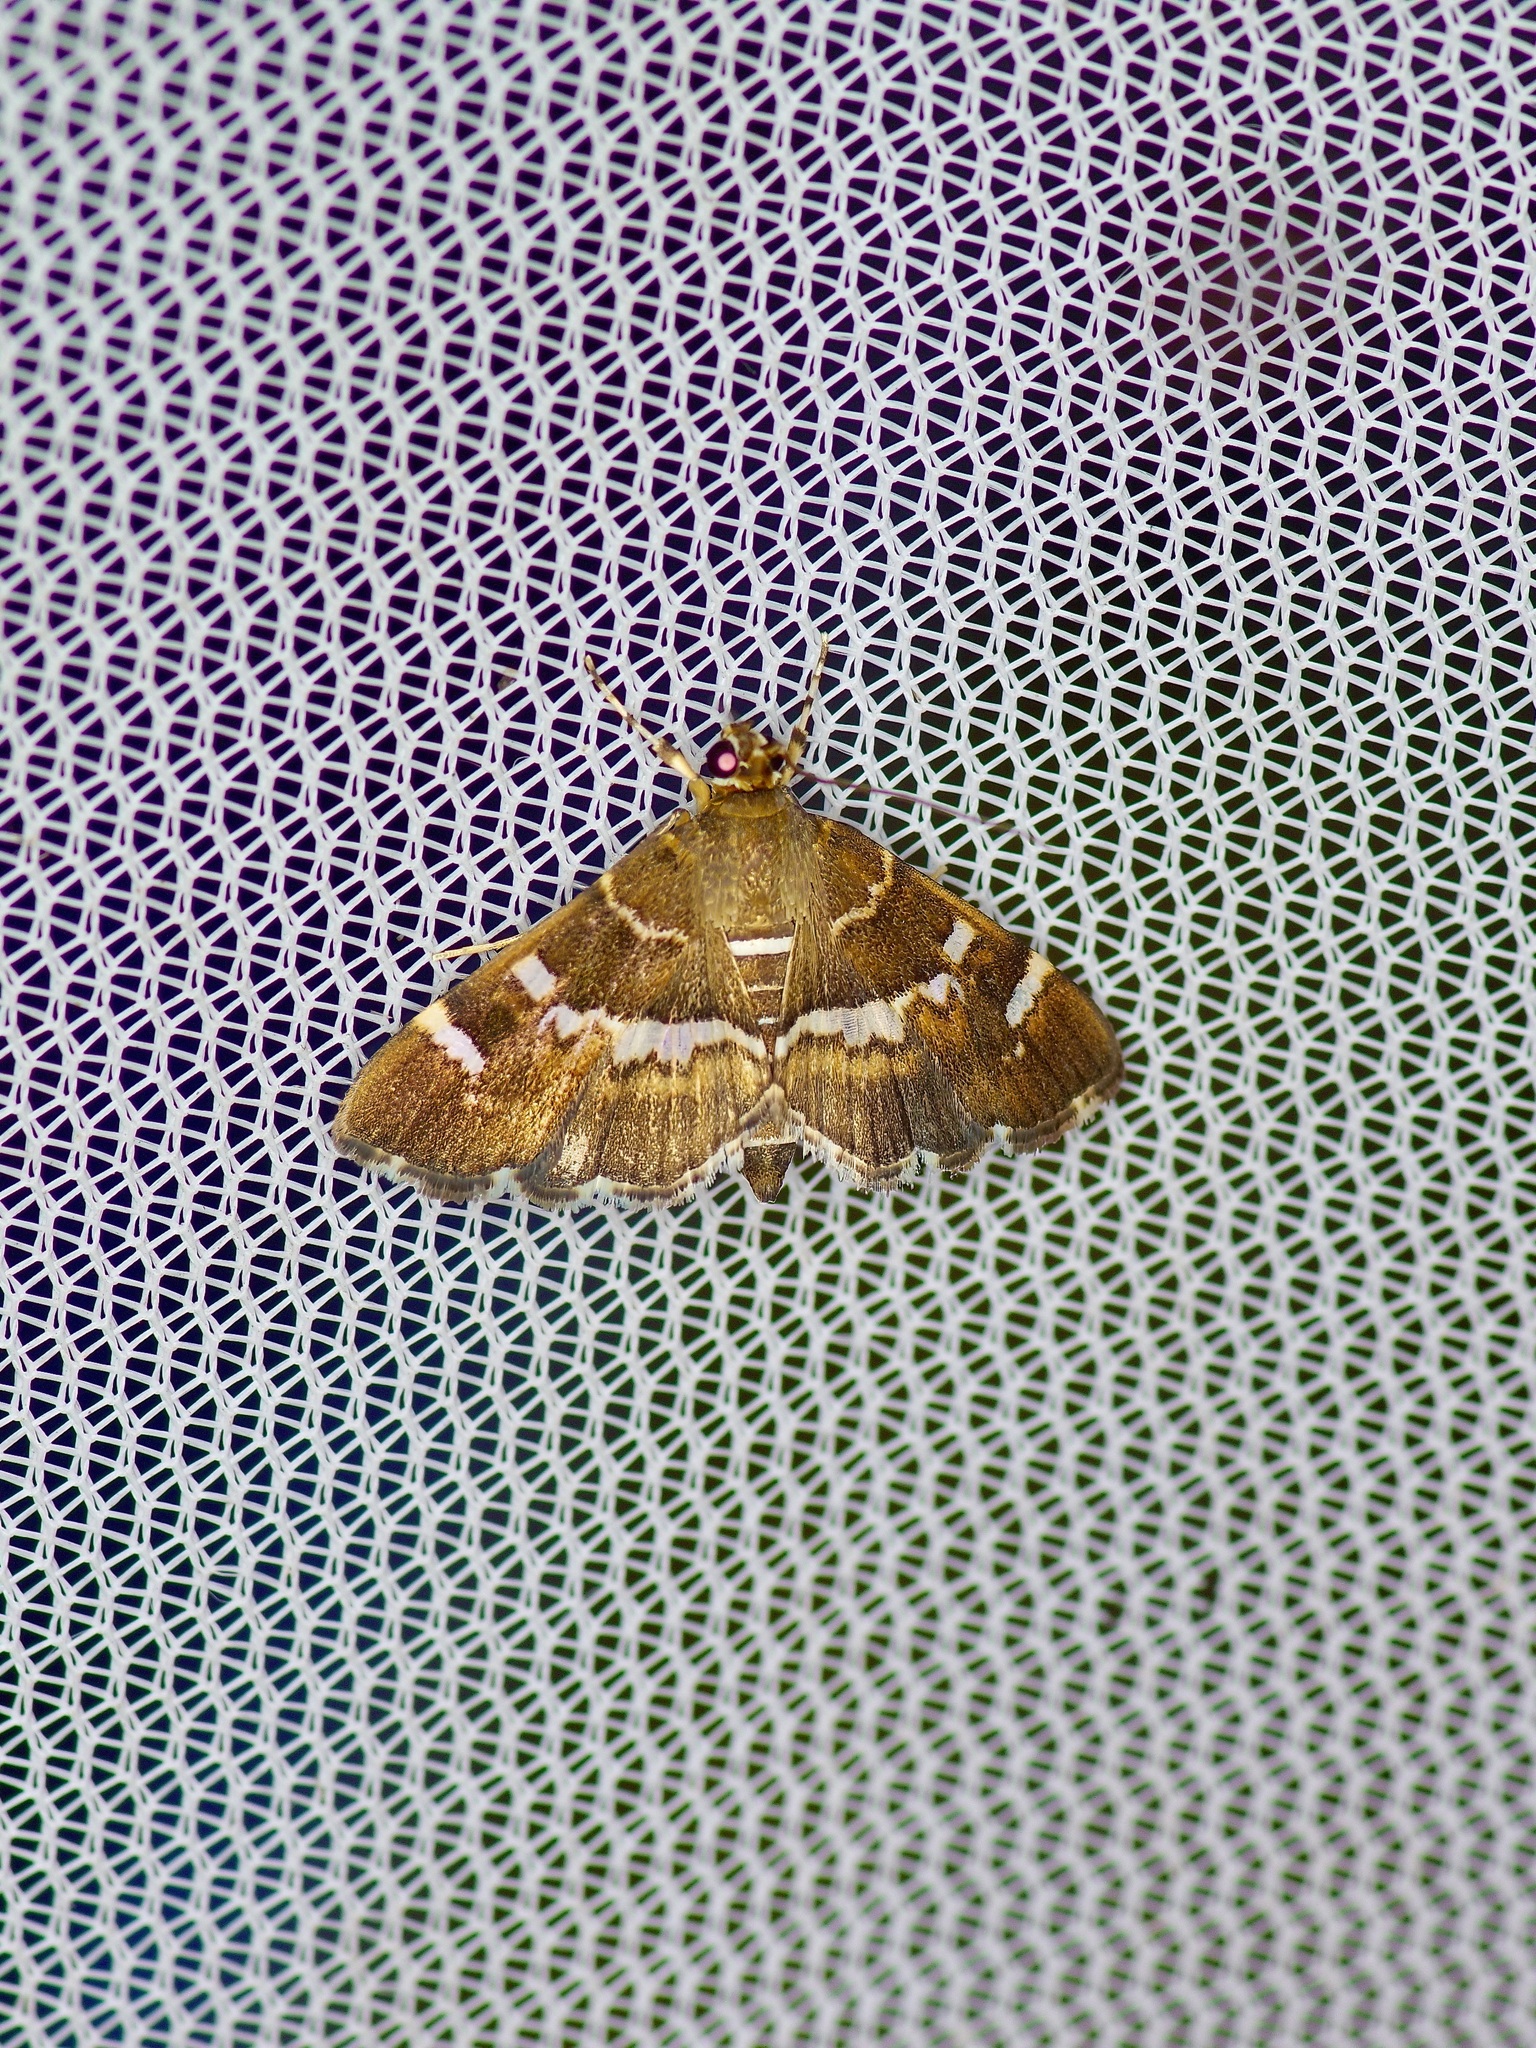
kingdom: Animalia
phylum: Arthropoda
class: Insecta
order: Lepidoptera
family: Crambidae
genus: Hymenia
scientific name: Hymenia perspectalis
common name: Spotted beet webworm
